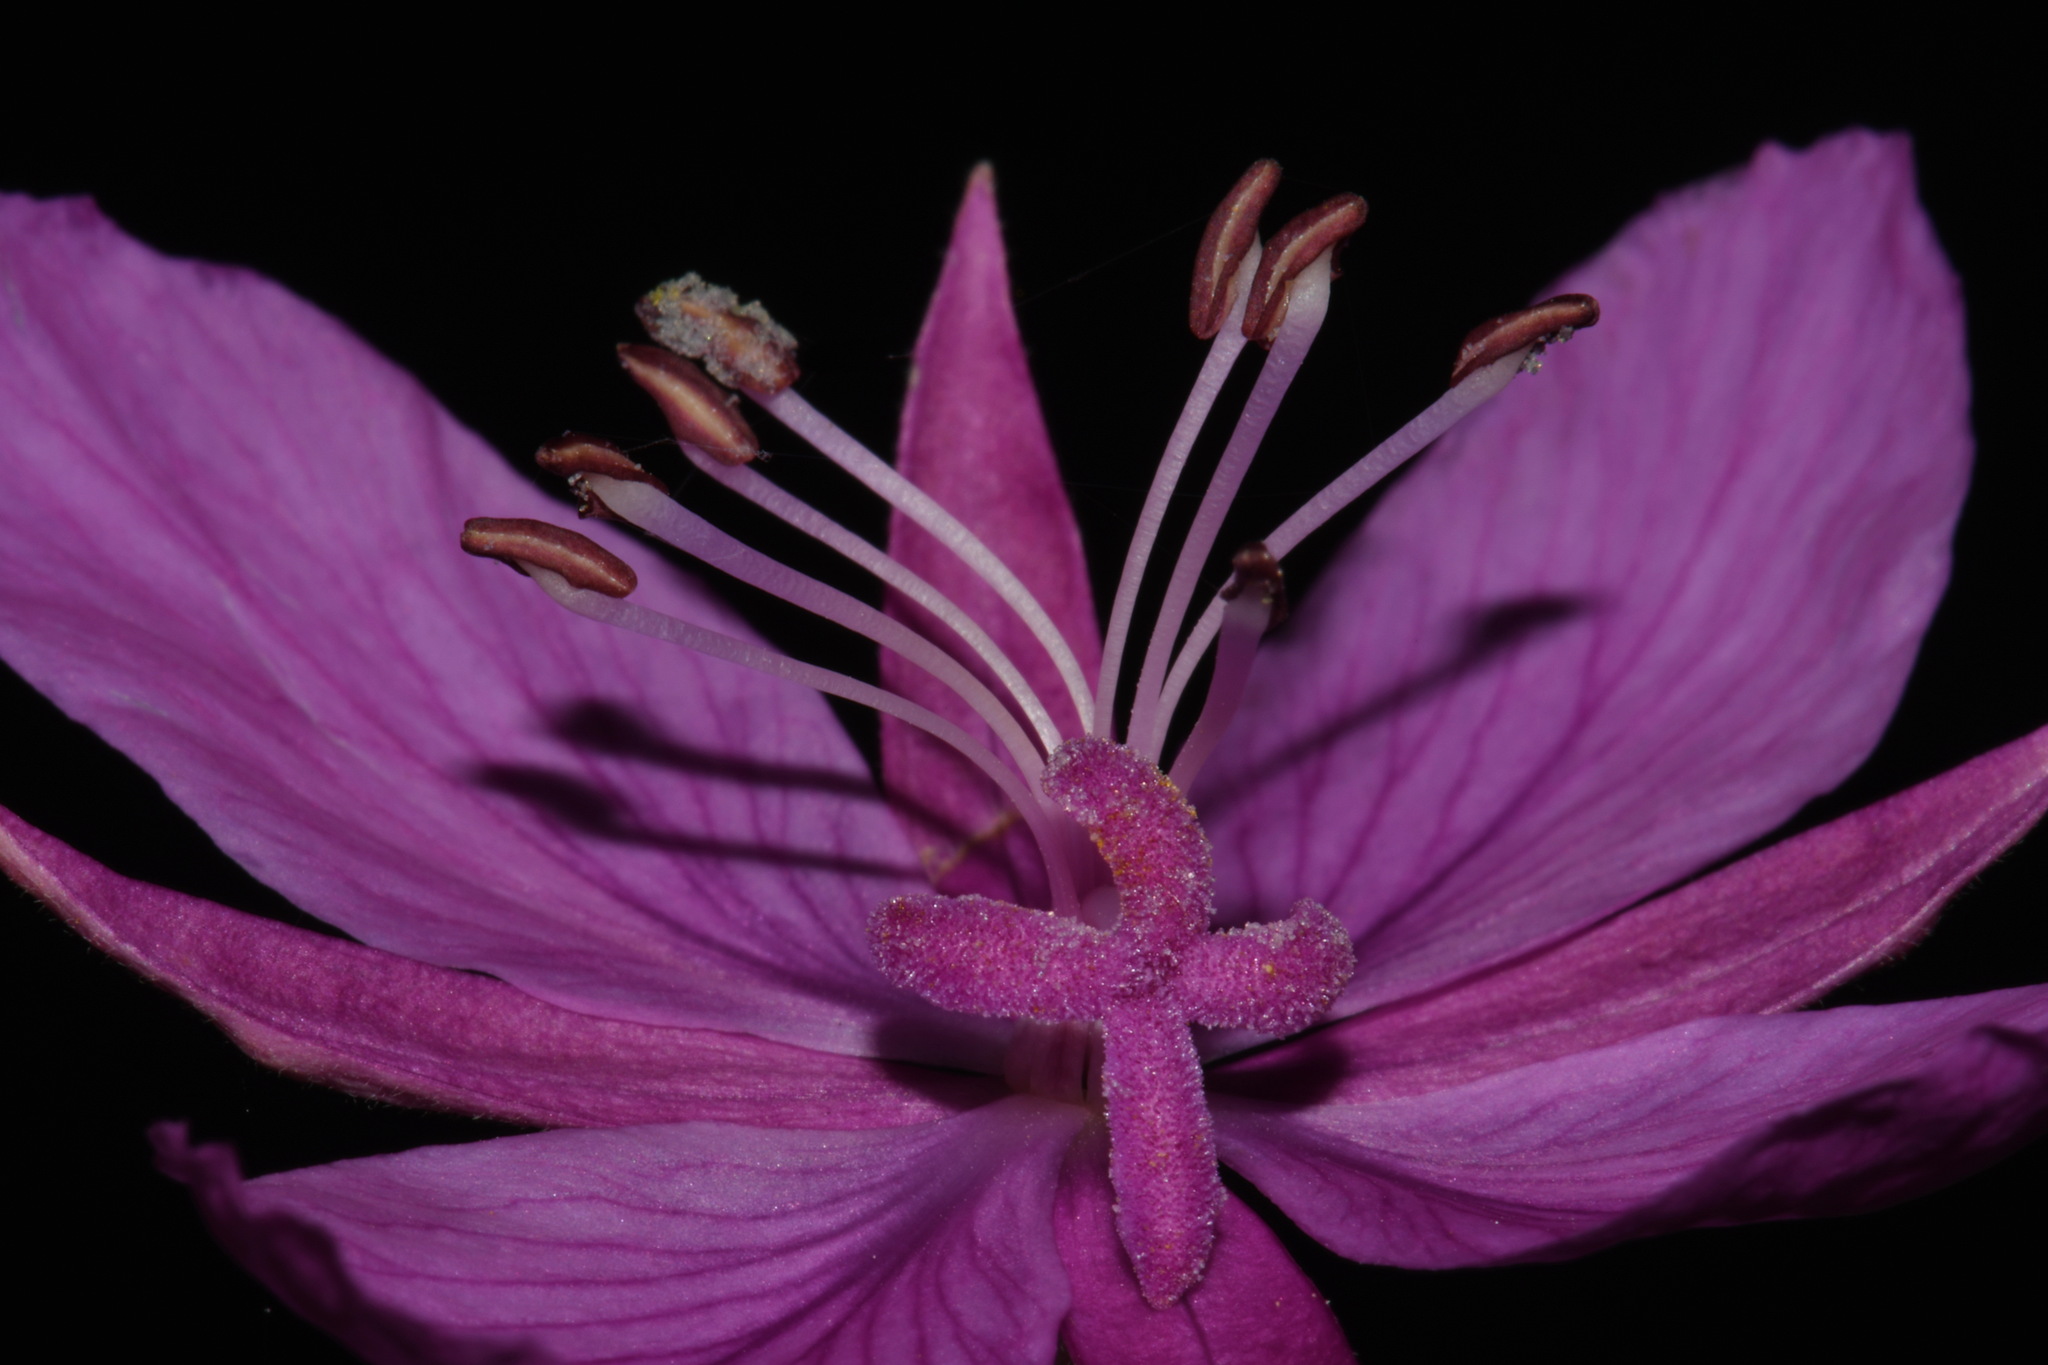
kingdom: Plantae
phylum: Tracheophyta
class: Magnoliopsida
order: Myrtales
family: Onagraceae
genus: Chamaenerion
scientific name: Chamaenerion latifolium
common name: Dwarf fireweed
